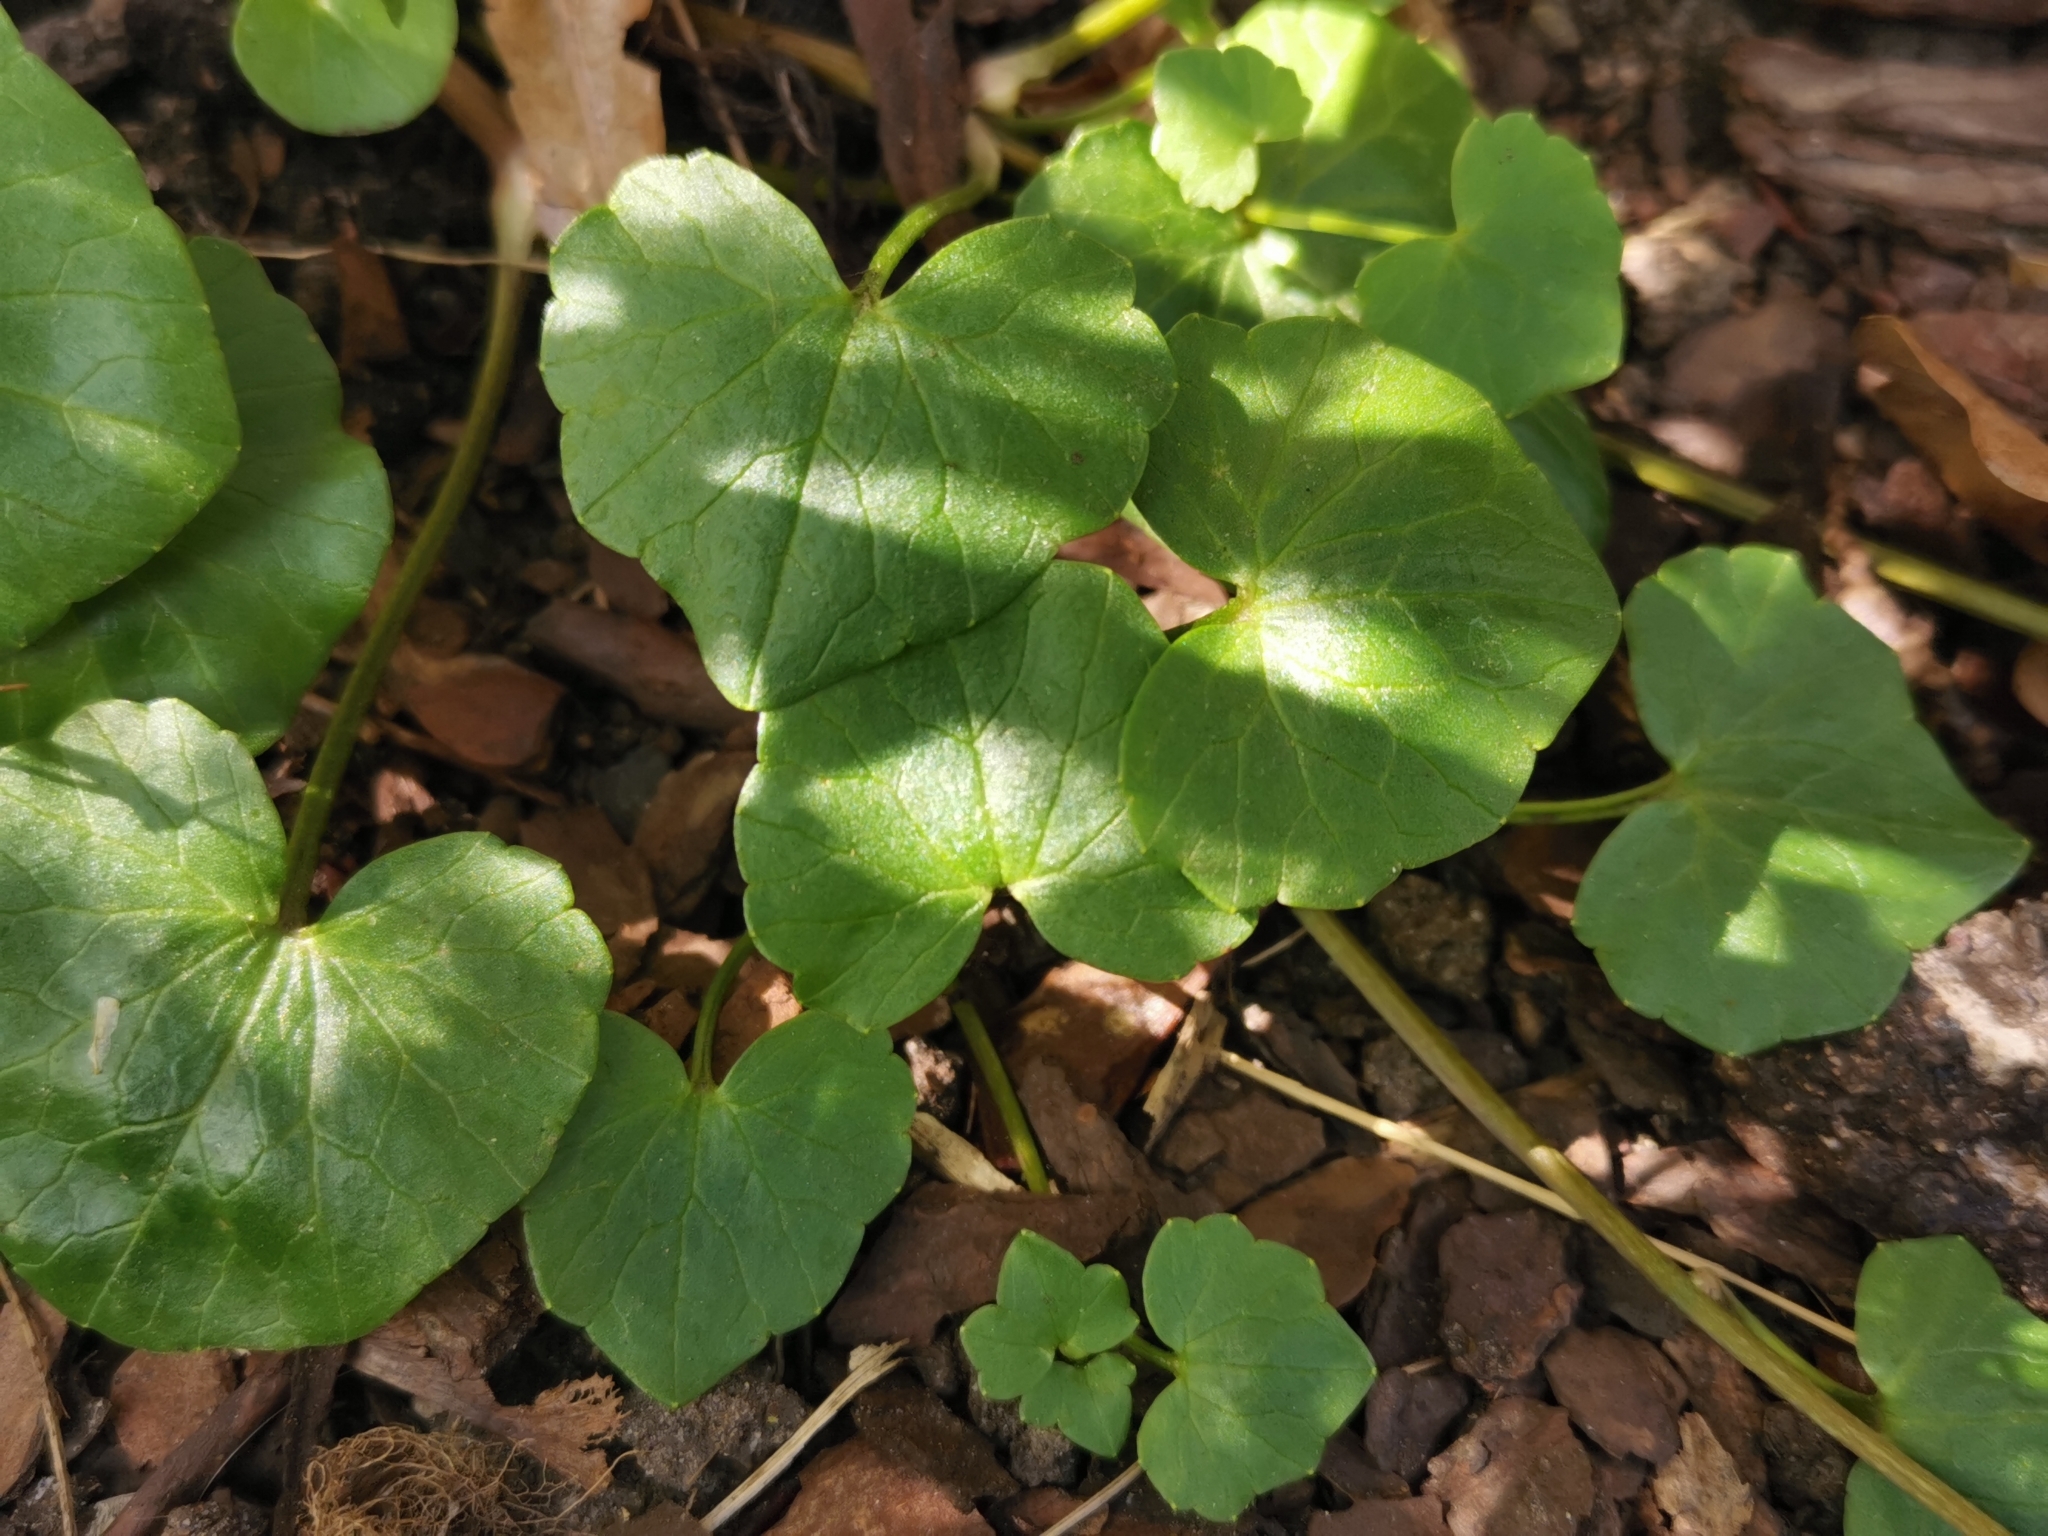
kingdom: Plantae
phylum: Tracheophyta
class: Magnoliopsida
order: Ranunculales
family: Ranunculaceae
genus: Ficaria
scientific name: Ficaria verna
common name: Lesser celandine
